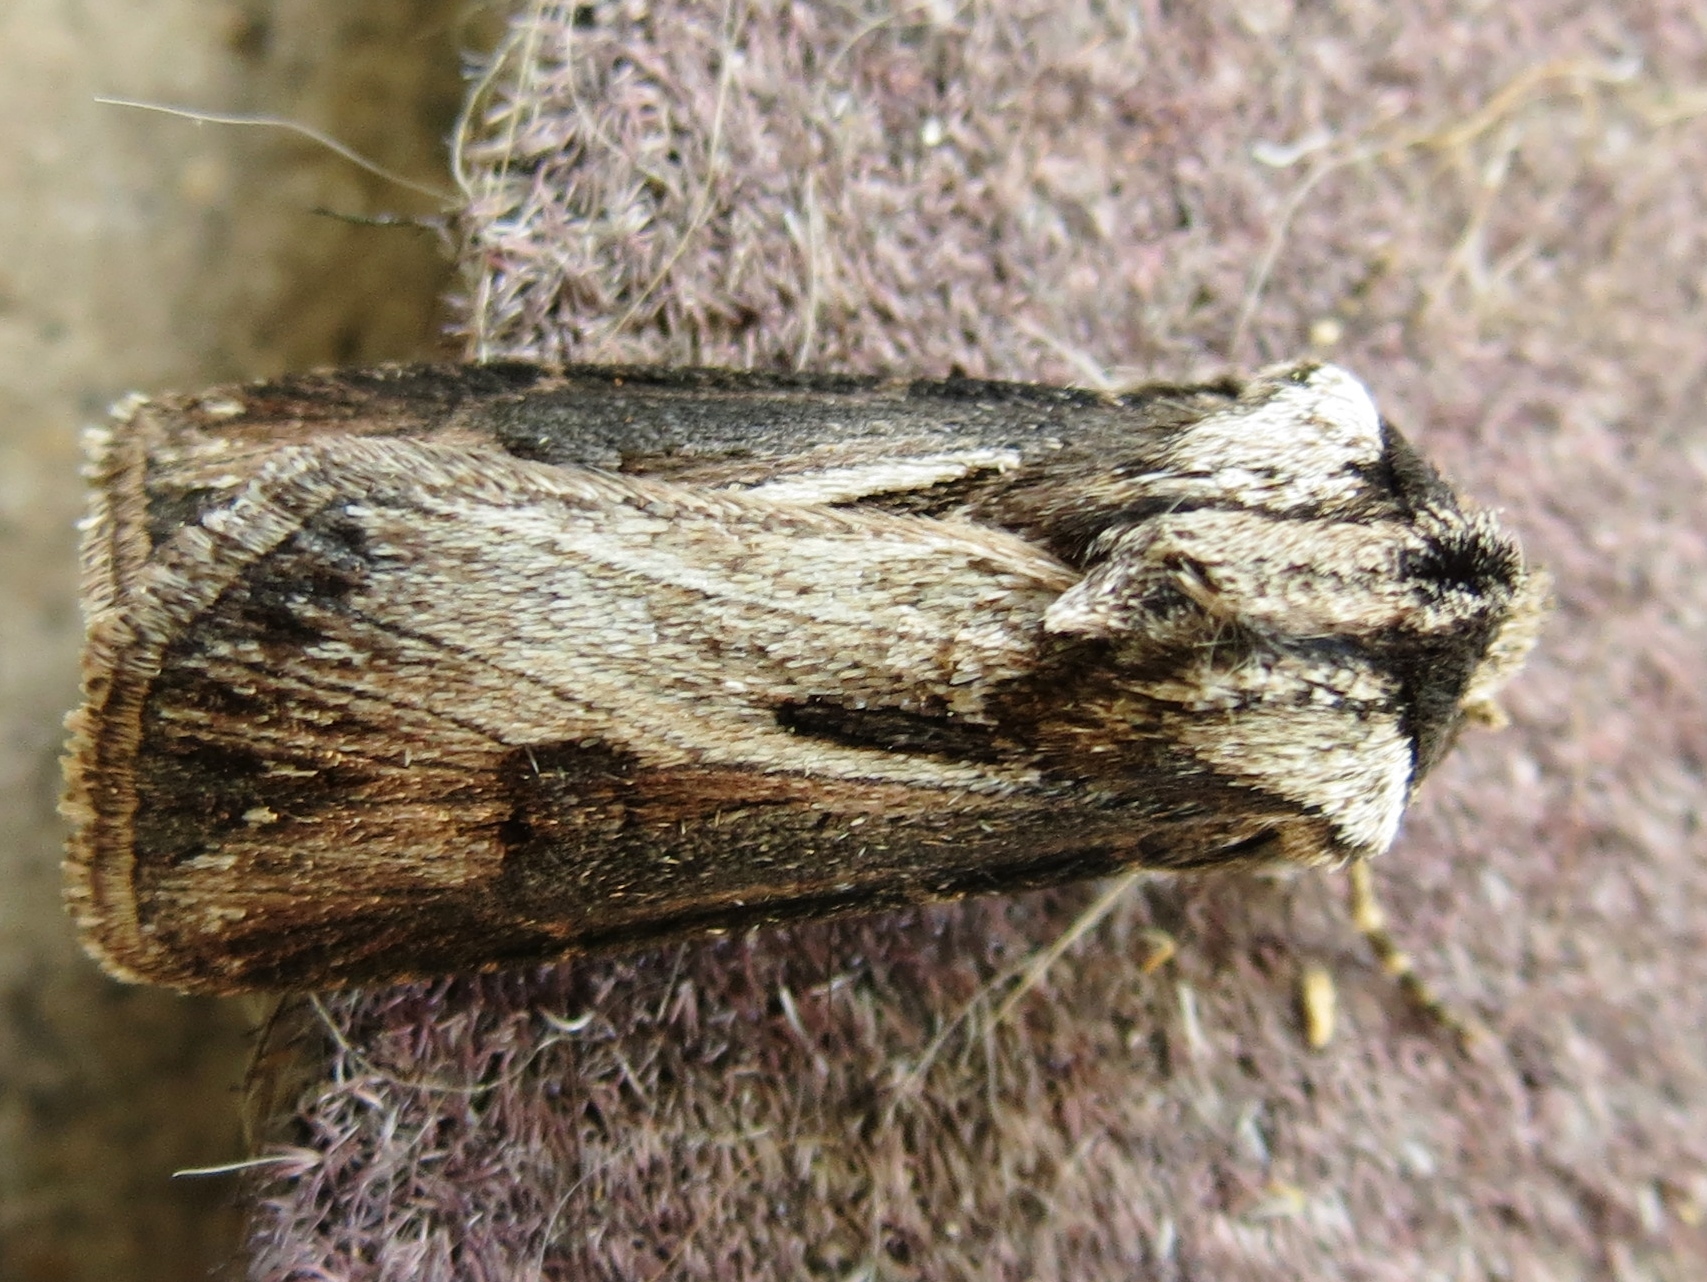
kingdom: Animalia
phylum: Arthropoda
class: Insecta
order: Lepidoptera
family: Noctuidae
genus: Agrotis
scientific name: Agrotis venerabilis
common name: Venerable dart
